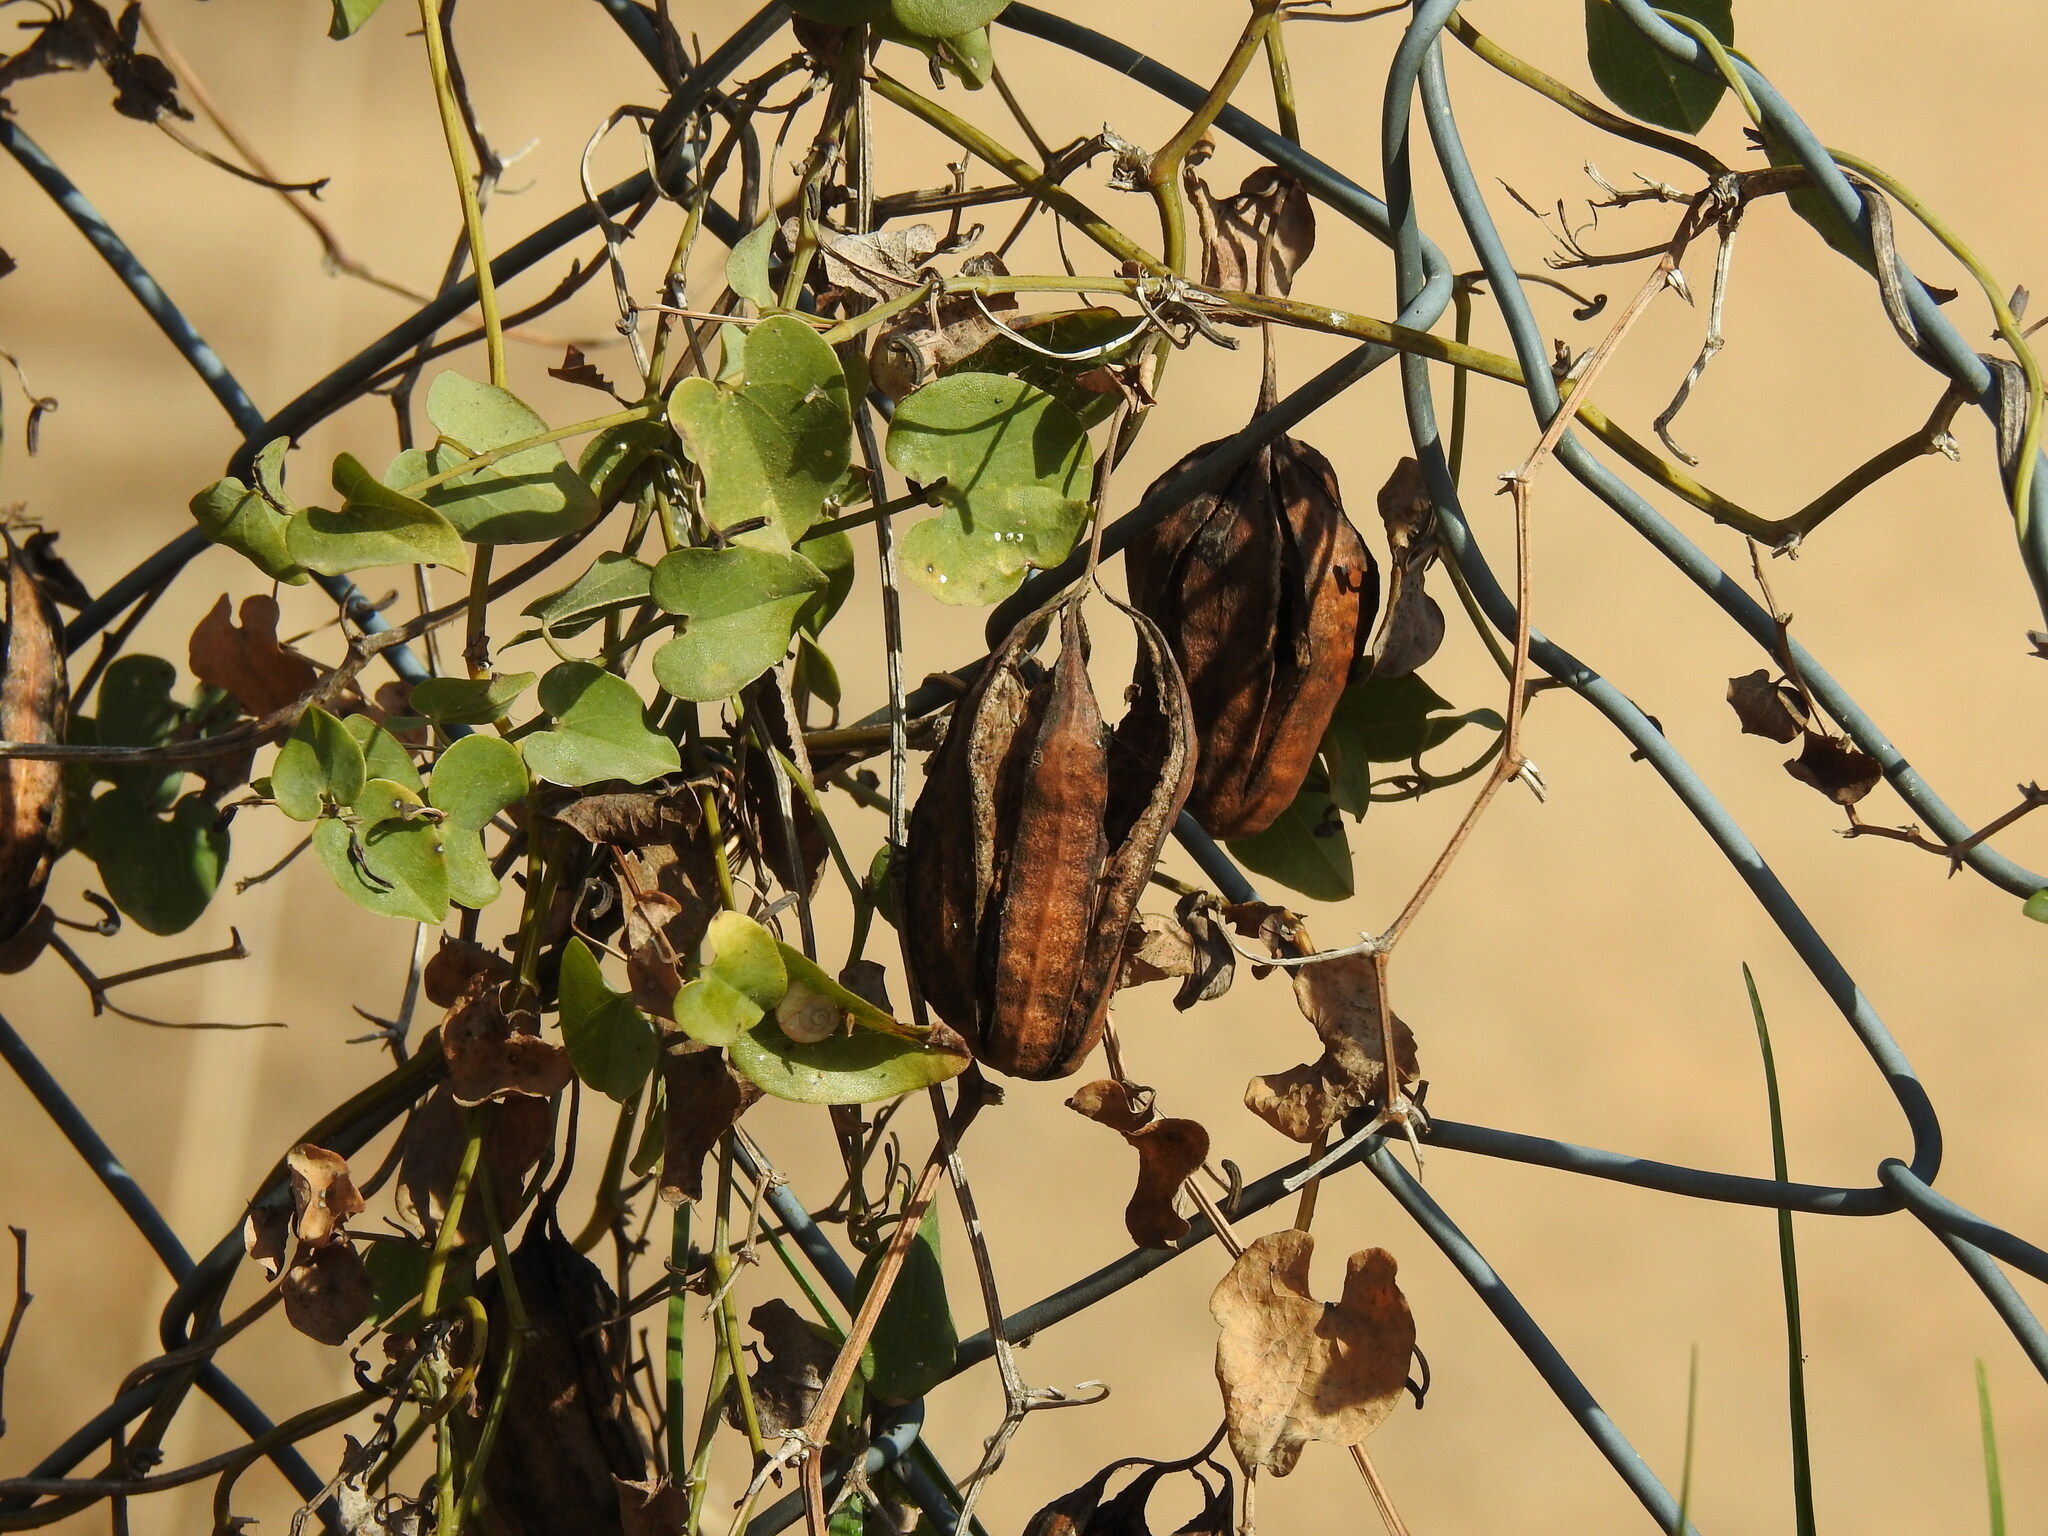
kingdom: Plantae
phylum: Tracheophyta
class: Magnoliopsida
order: Piperales
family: Aristolochiaceae
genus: Aristolochia
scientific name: Aristolochia baetica
